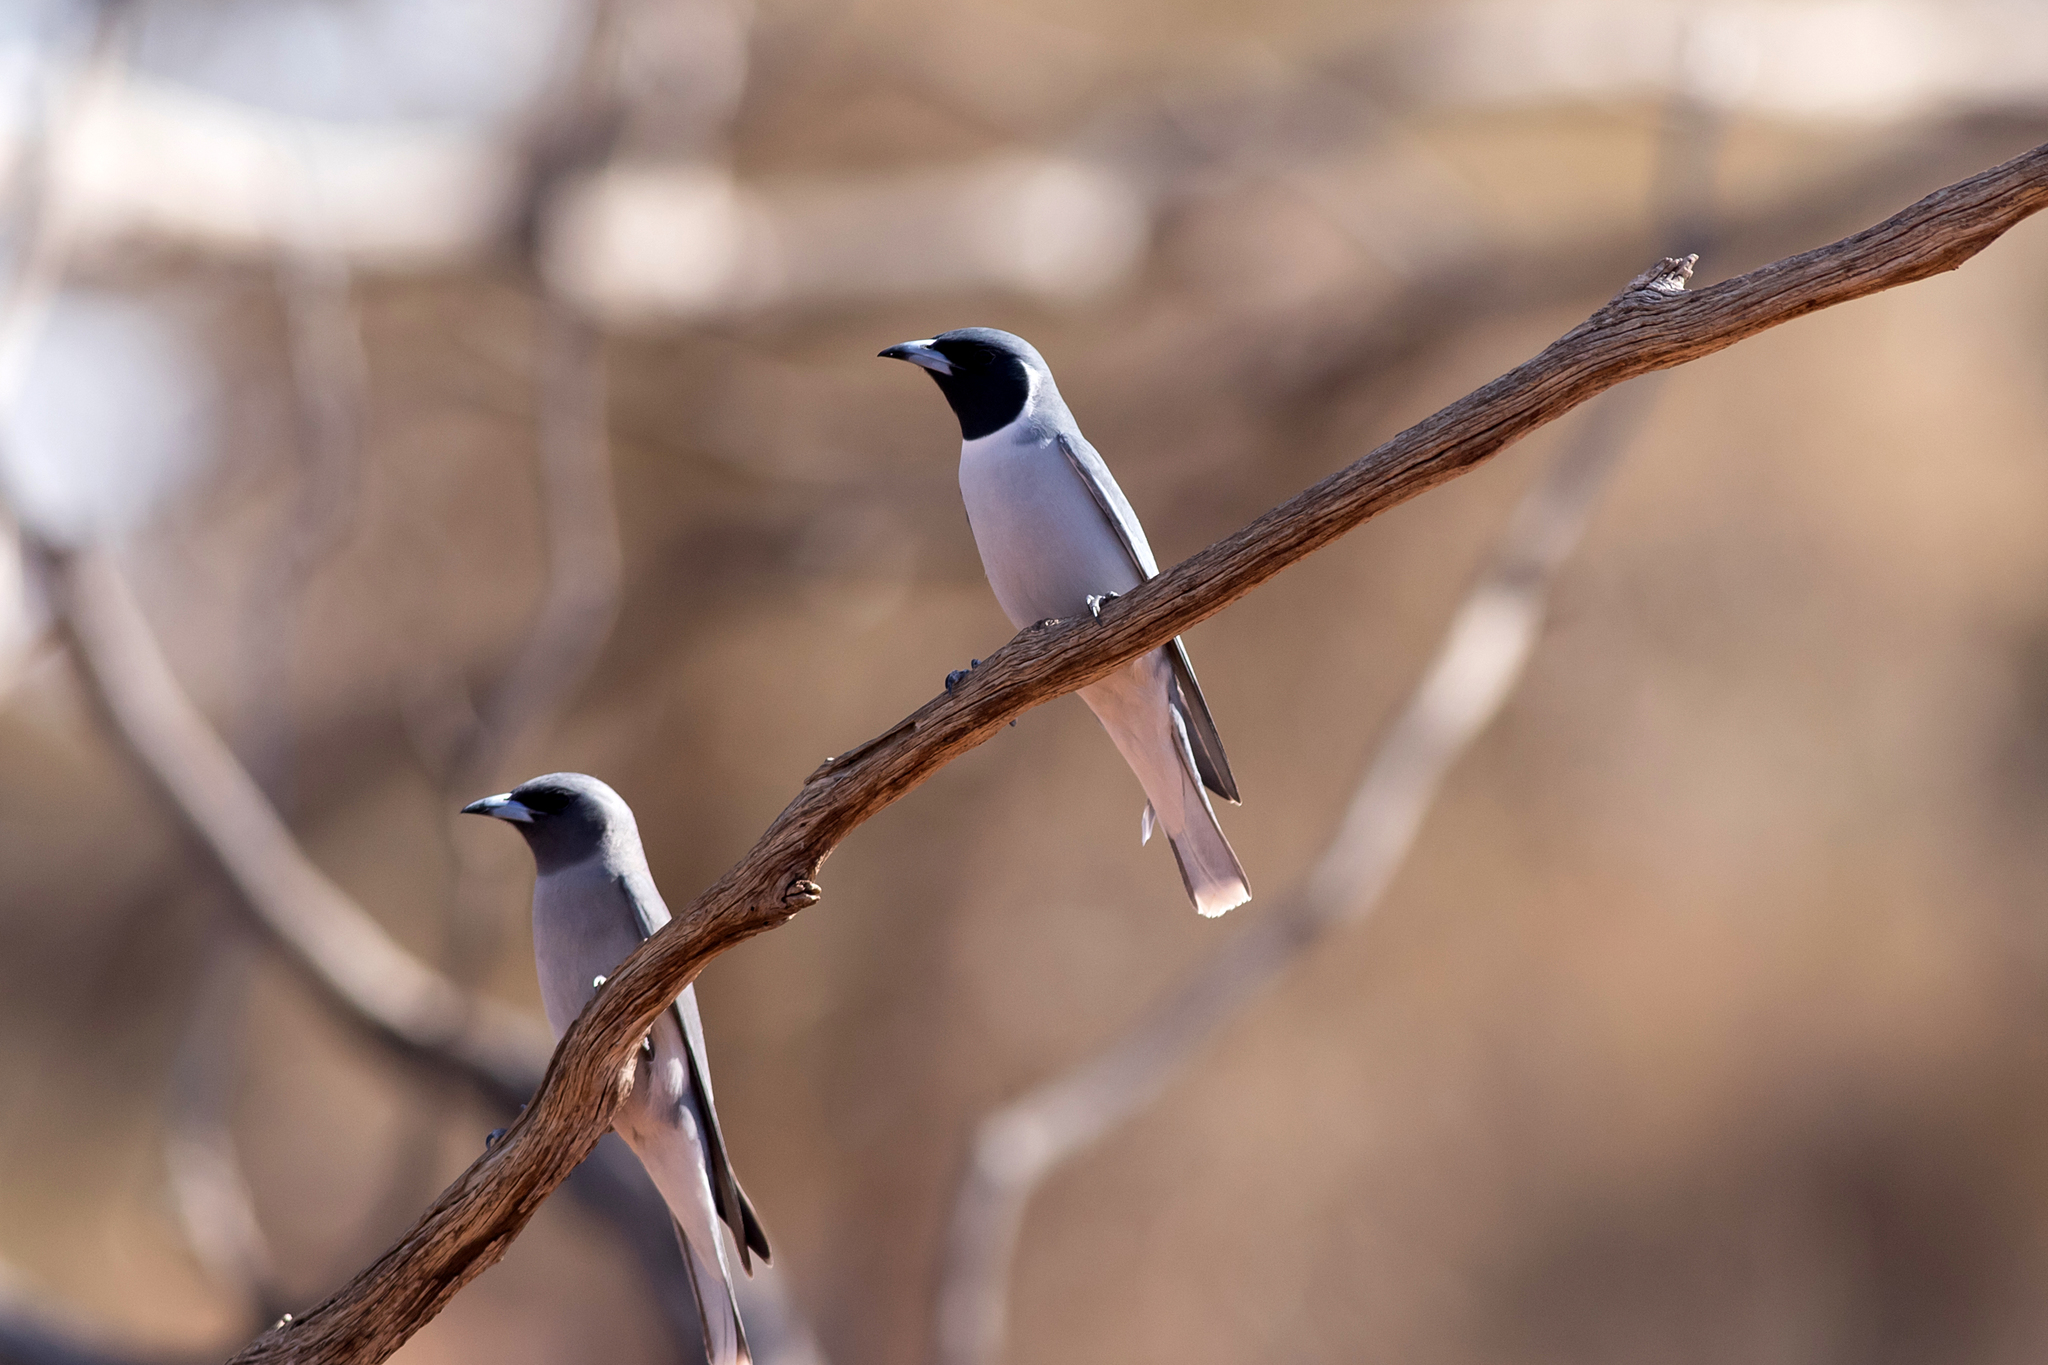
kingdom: Animalia
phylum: Chordata
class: Aves
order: Passeriformes
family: Artamidae
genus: Artamus
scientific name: Artamus personatus
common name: Masked woodswallow
